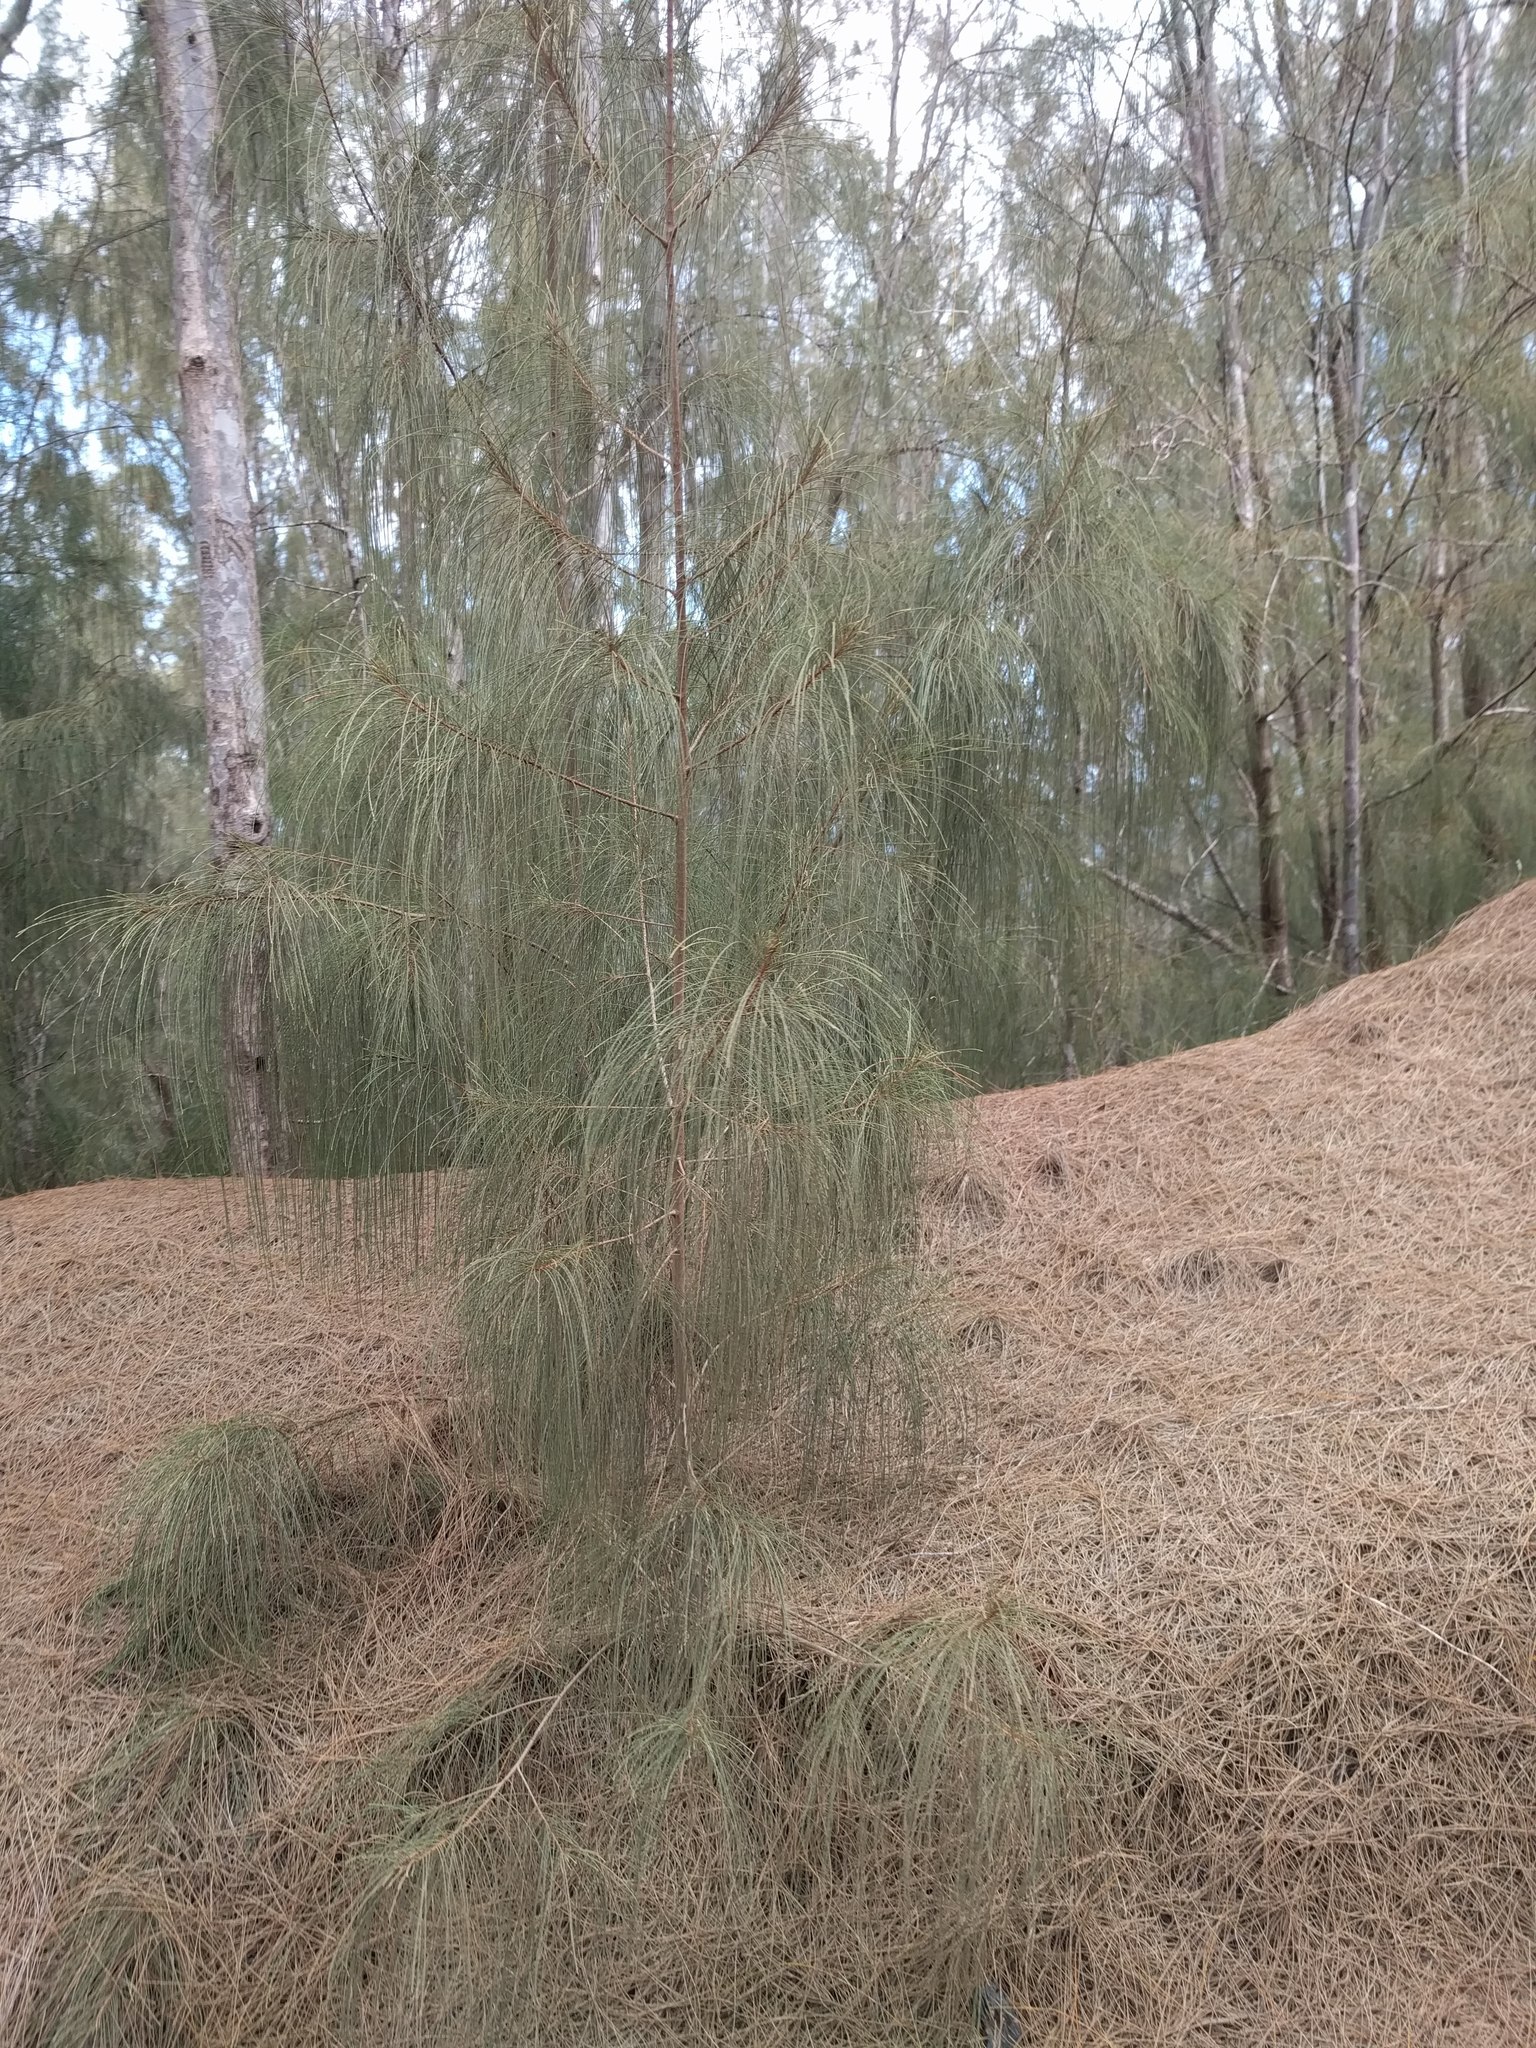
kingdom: Plantae
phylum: Tracheophyta
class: Magnoliopsida
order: Fagales
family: Casuarinaceae
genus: Casuarina
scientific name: Casuarina equisetifolia
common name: Beach sheoak
